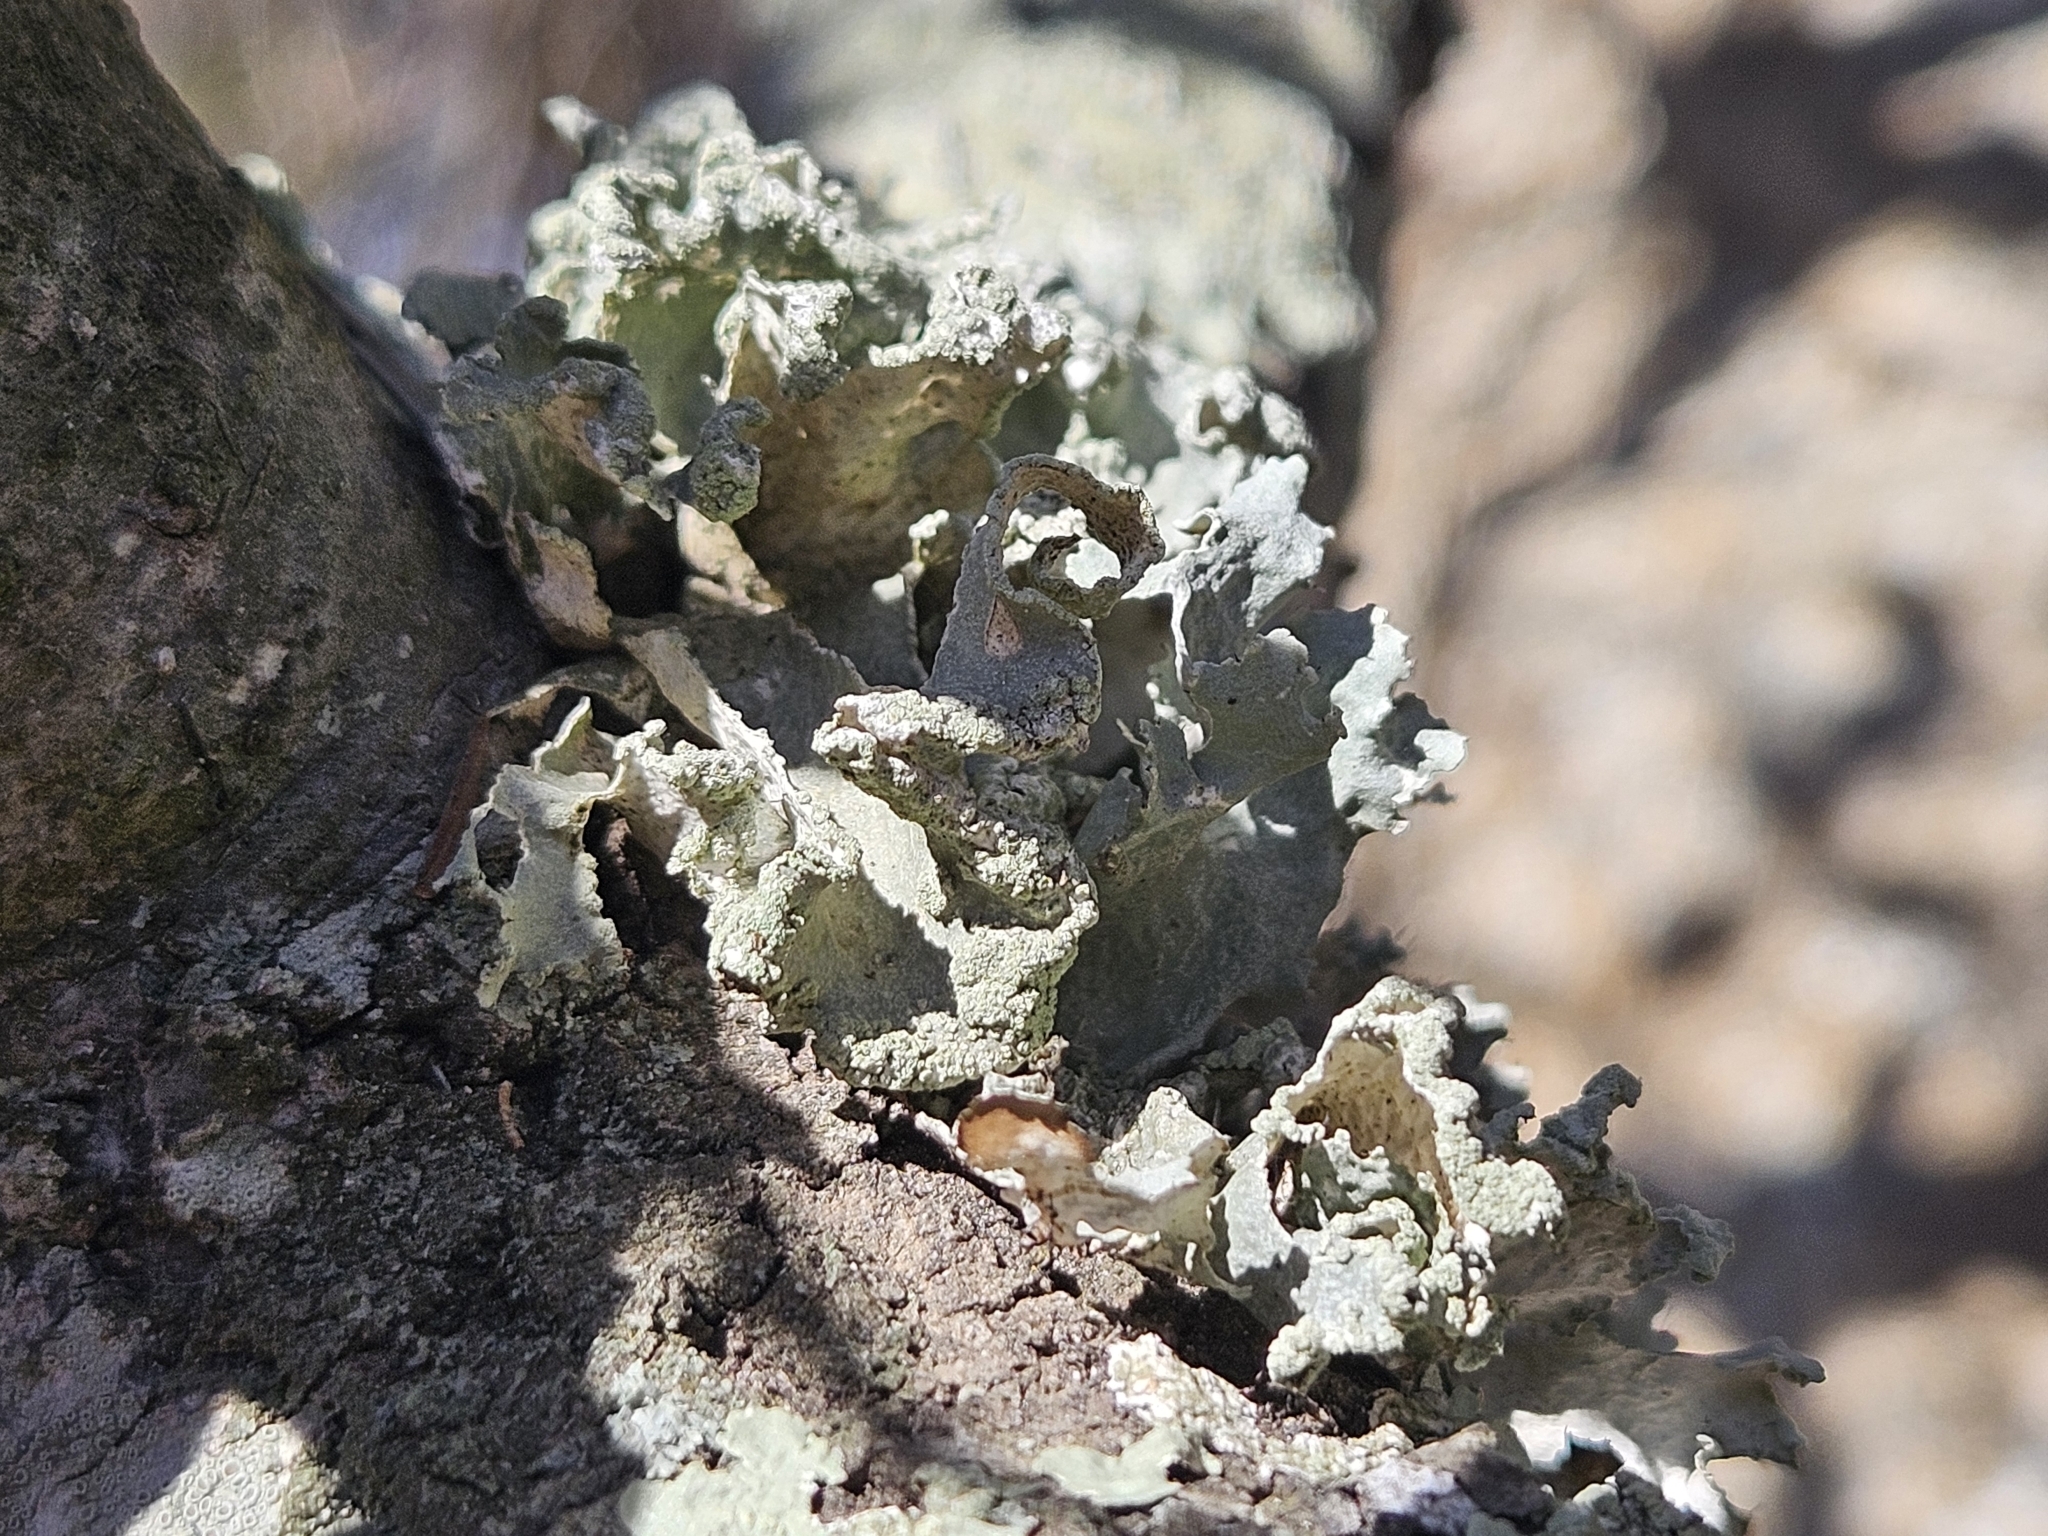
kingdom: Fungi
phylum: Ascomycota
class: Lecanoromycetes
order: Lecanorales
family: Parmeliaceae
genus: Parmotrema
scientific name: Parmotrema hypoleucinum
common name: Lacy powdered-ruffle
